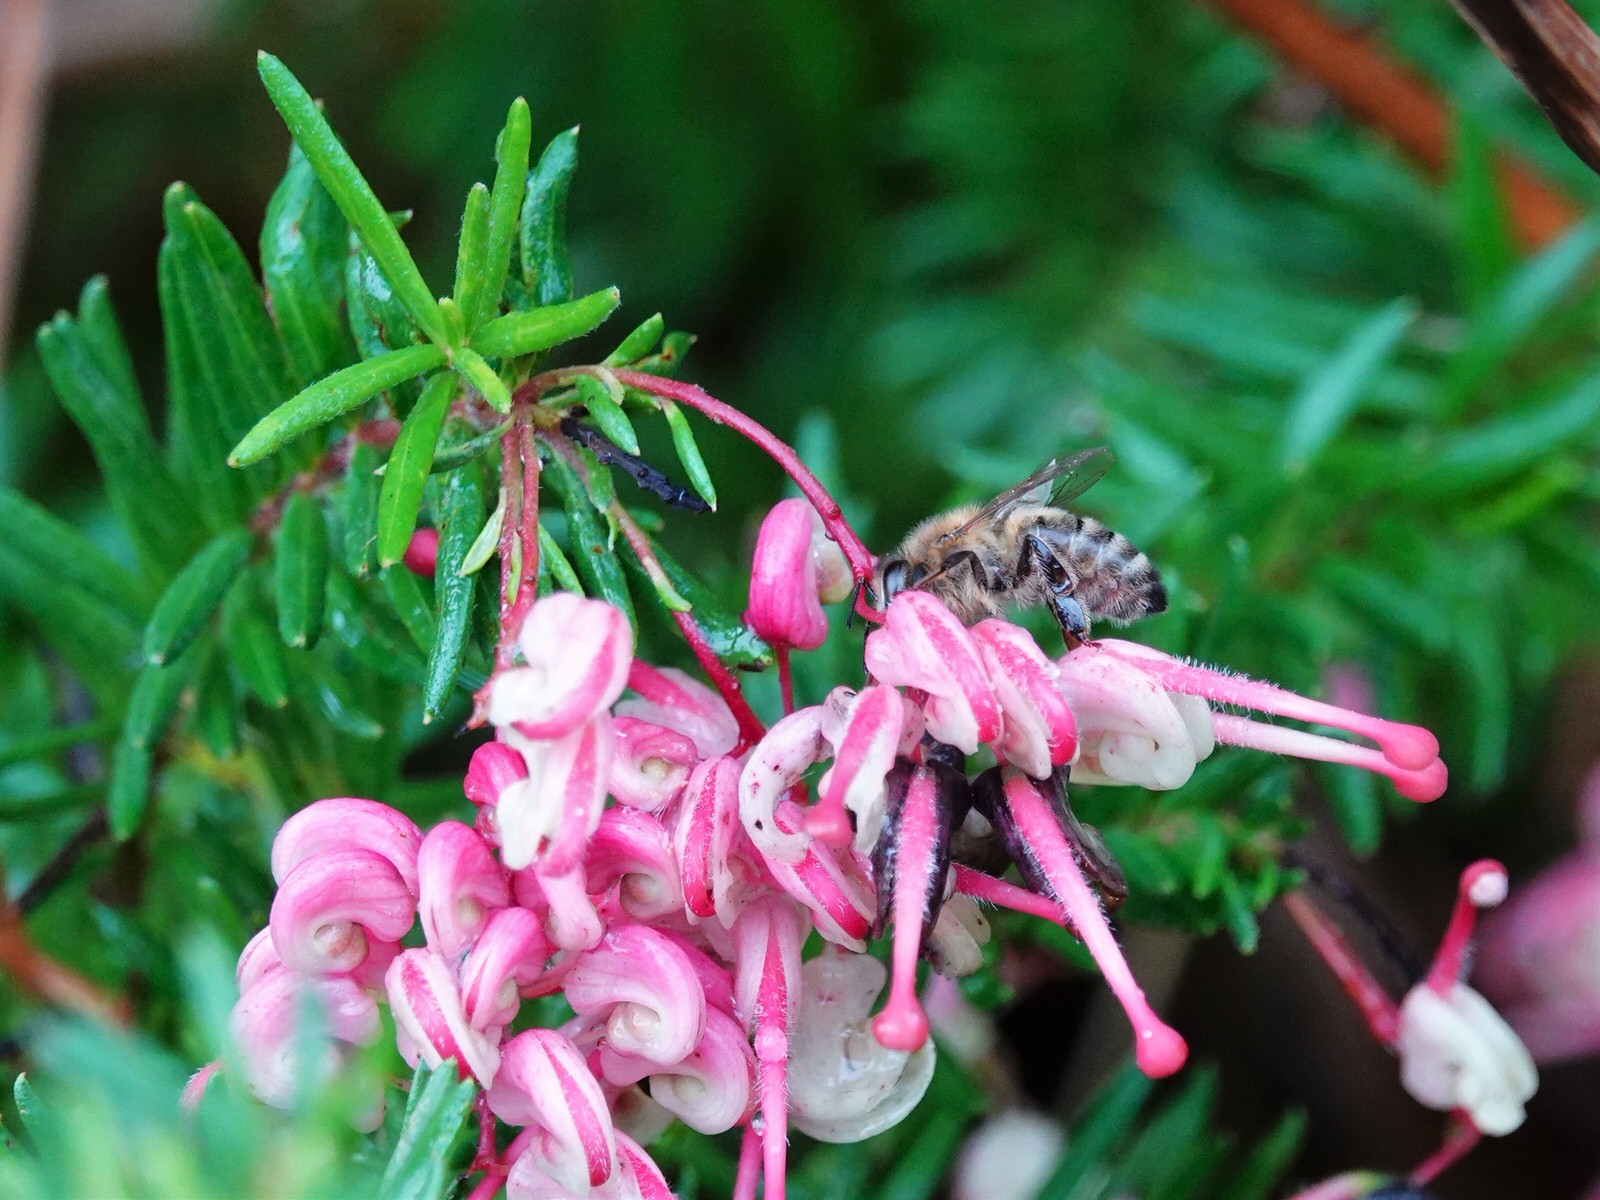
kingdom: Animalia
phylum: Arthropoda
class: Insecta
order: Hymenoptera
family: Apidae
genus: Apis
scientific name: Apis mellifera
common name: Honey bee
